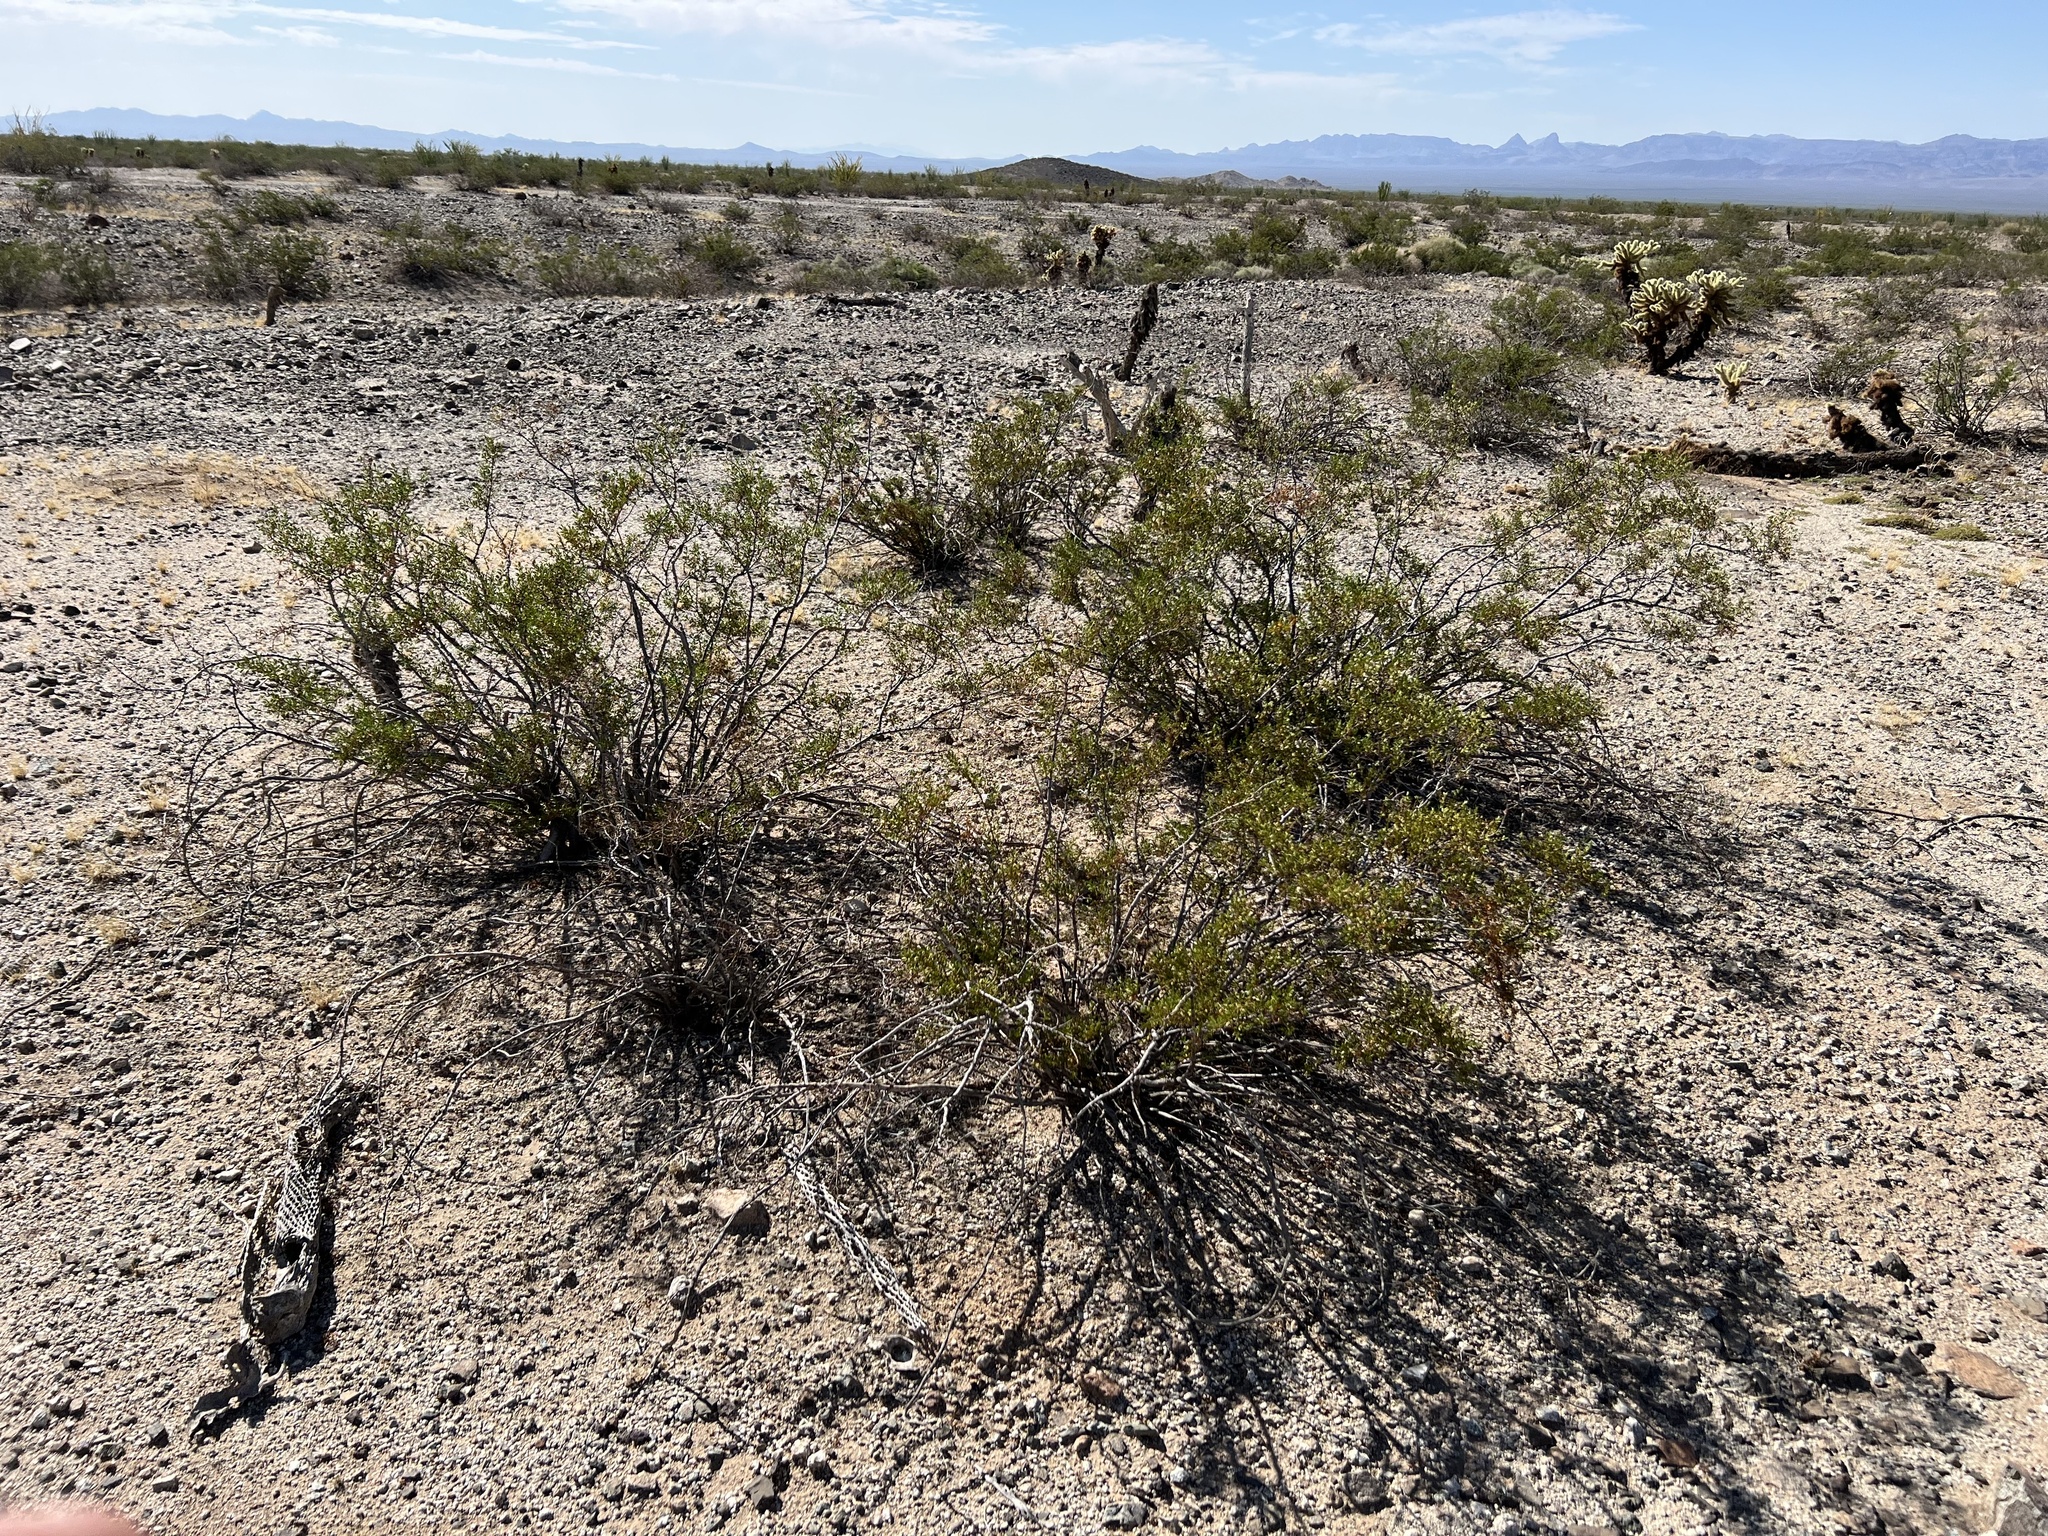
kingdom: Plantae
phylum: Tracheophyta
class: Magnoliopsida
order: Zygophyllales
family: Zygophyllaceae
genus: Larrea
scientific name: Larrea tridentata
